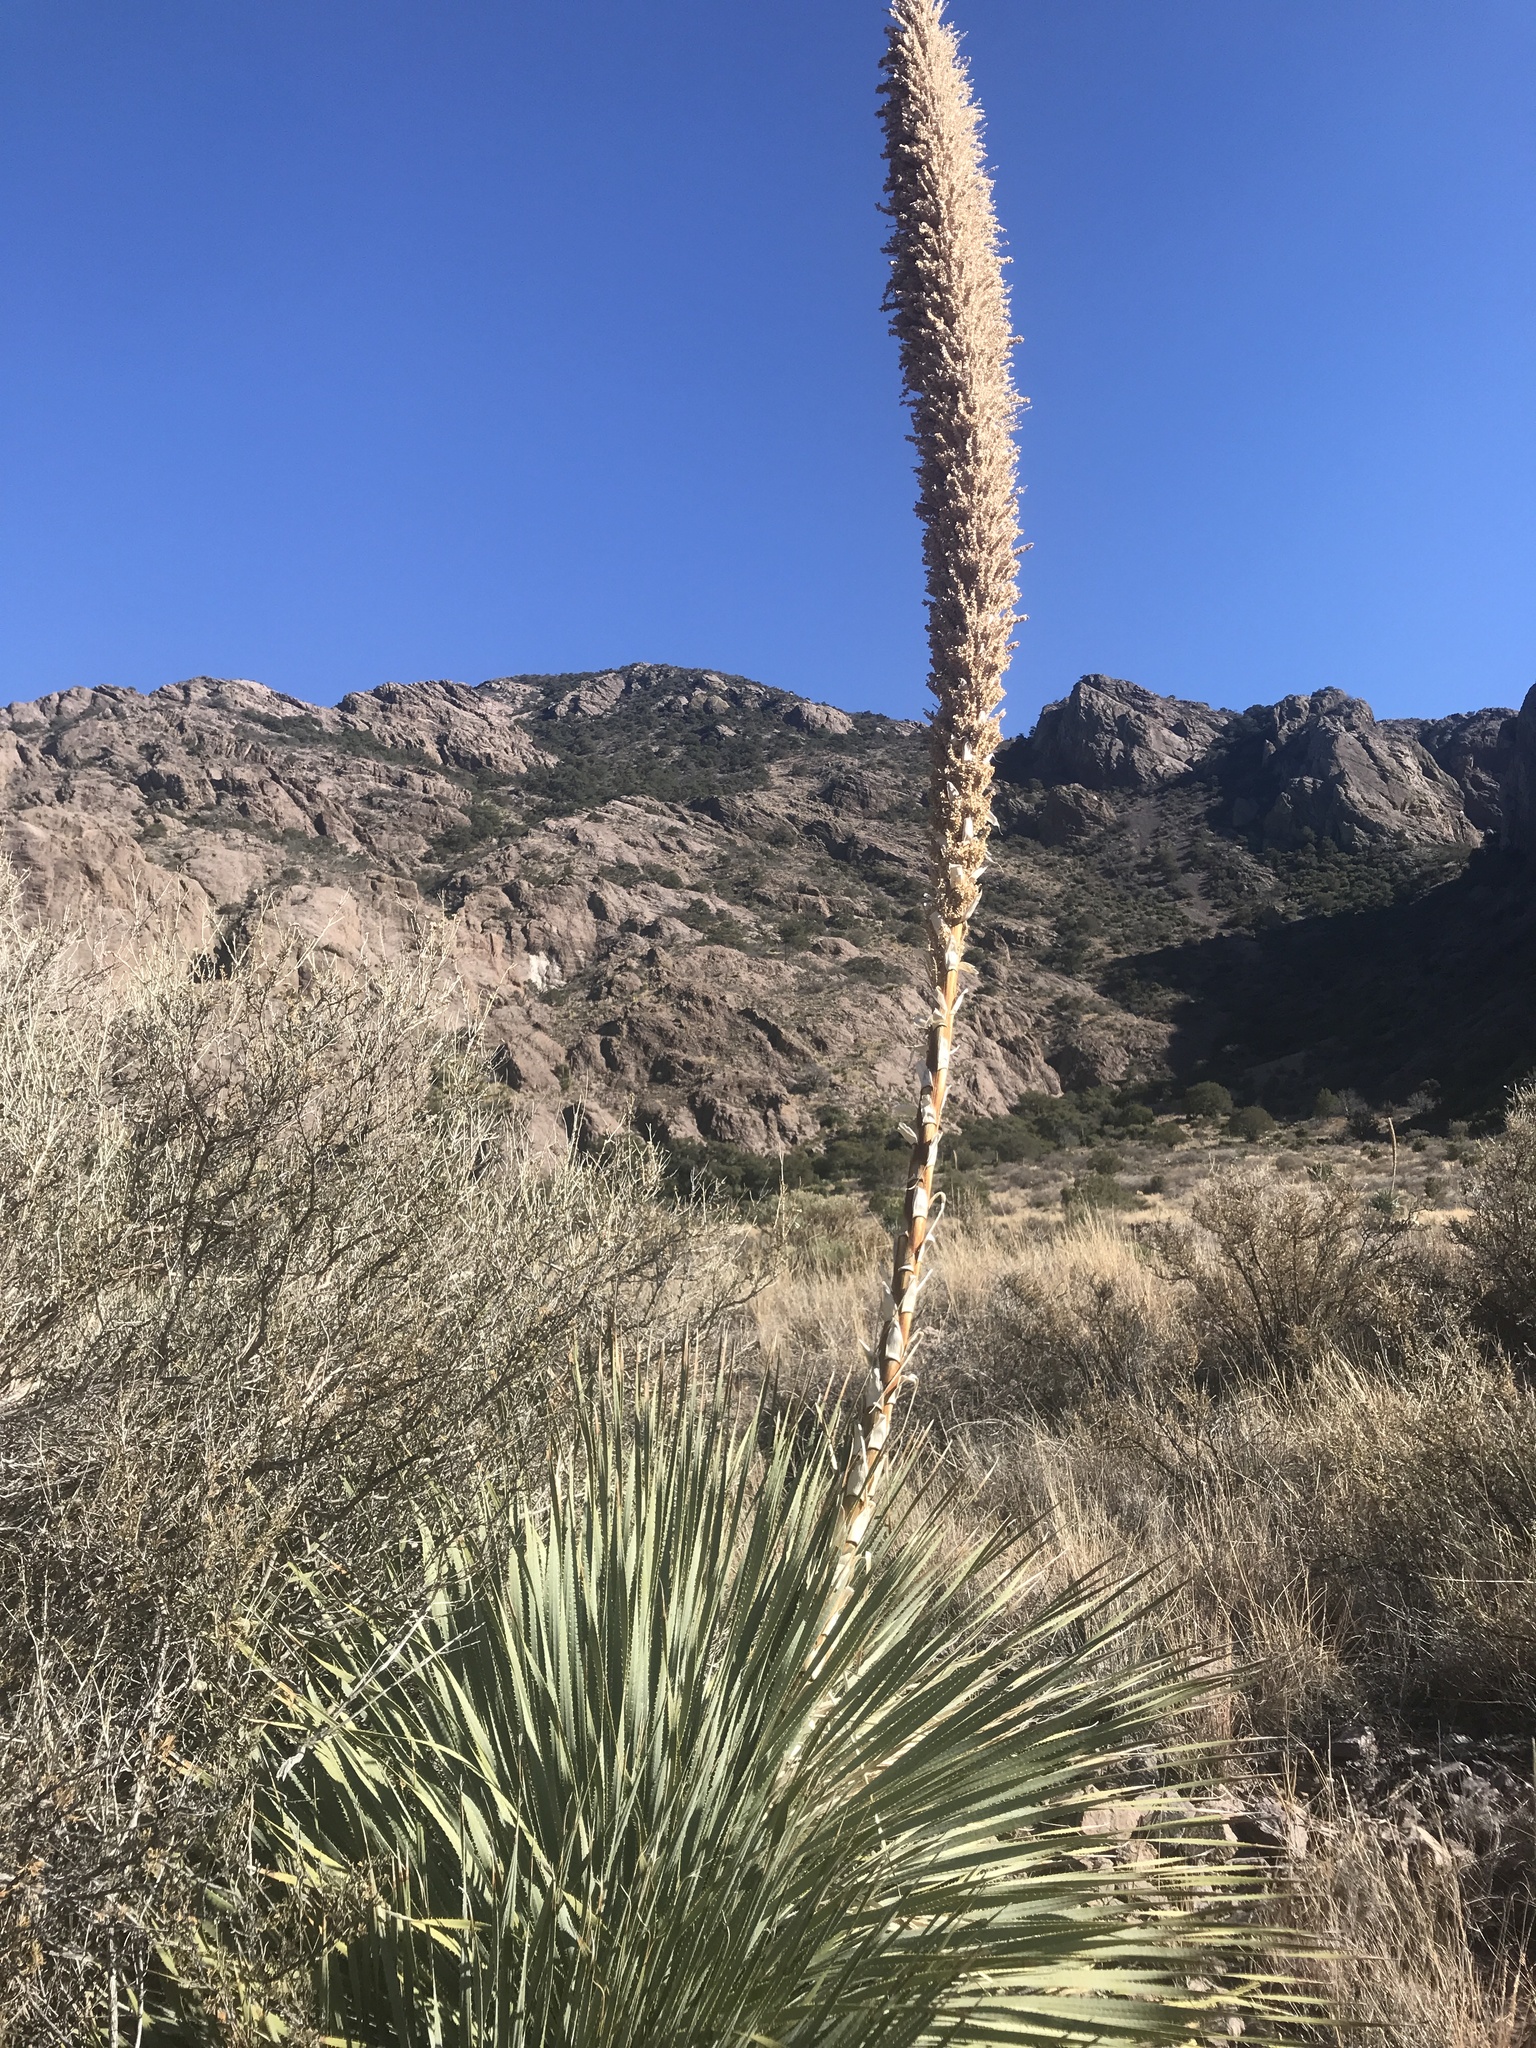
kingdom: Plantae
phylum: Tracheophyta
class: Liliopsida
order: Asparagales
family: Asparagaceae
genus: Dasylirion
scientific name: Dasylirion wheeleri
